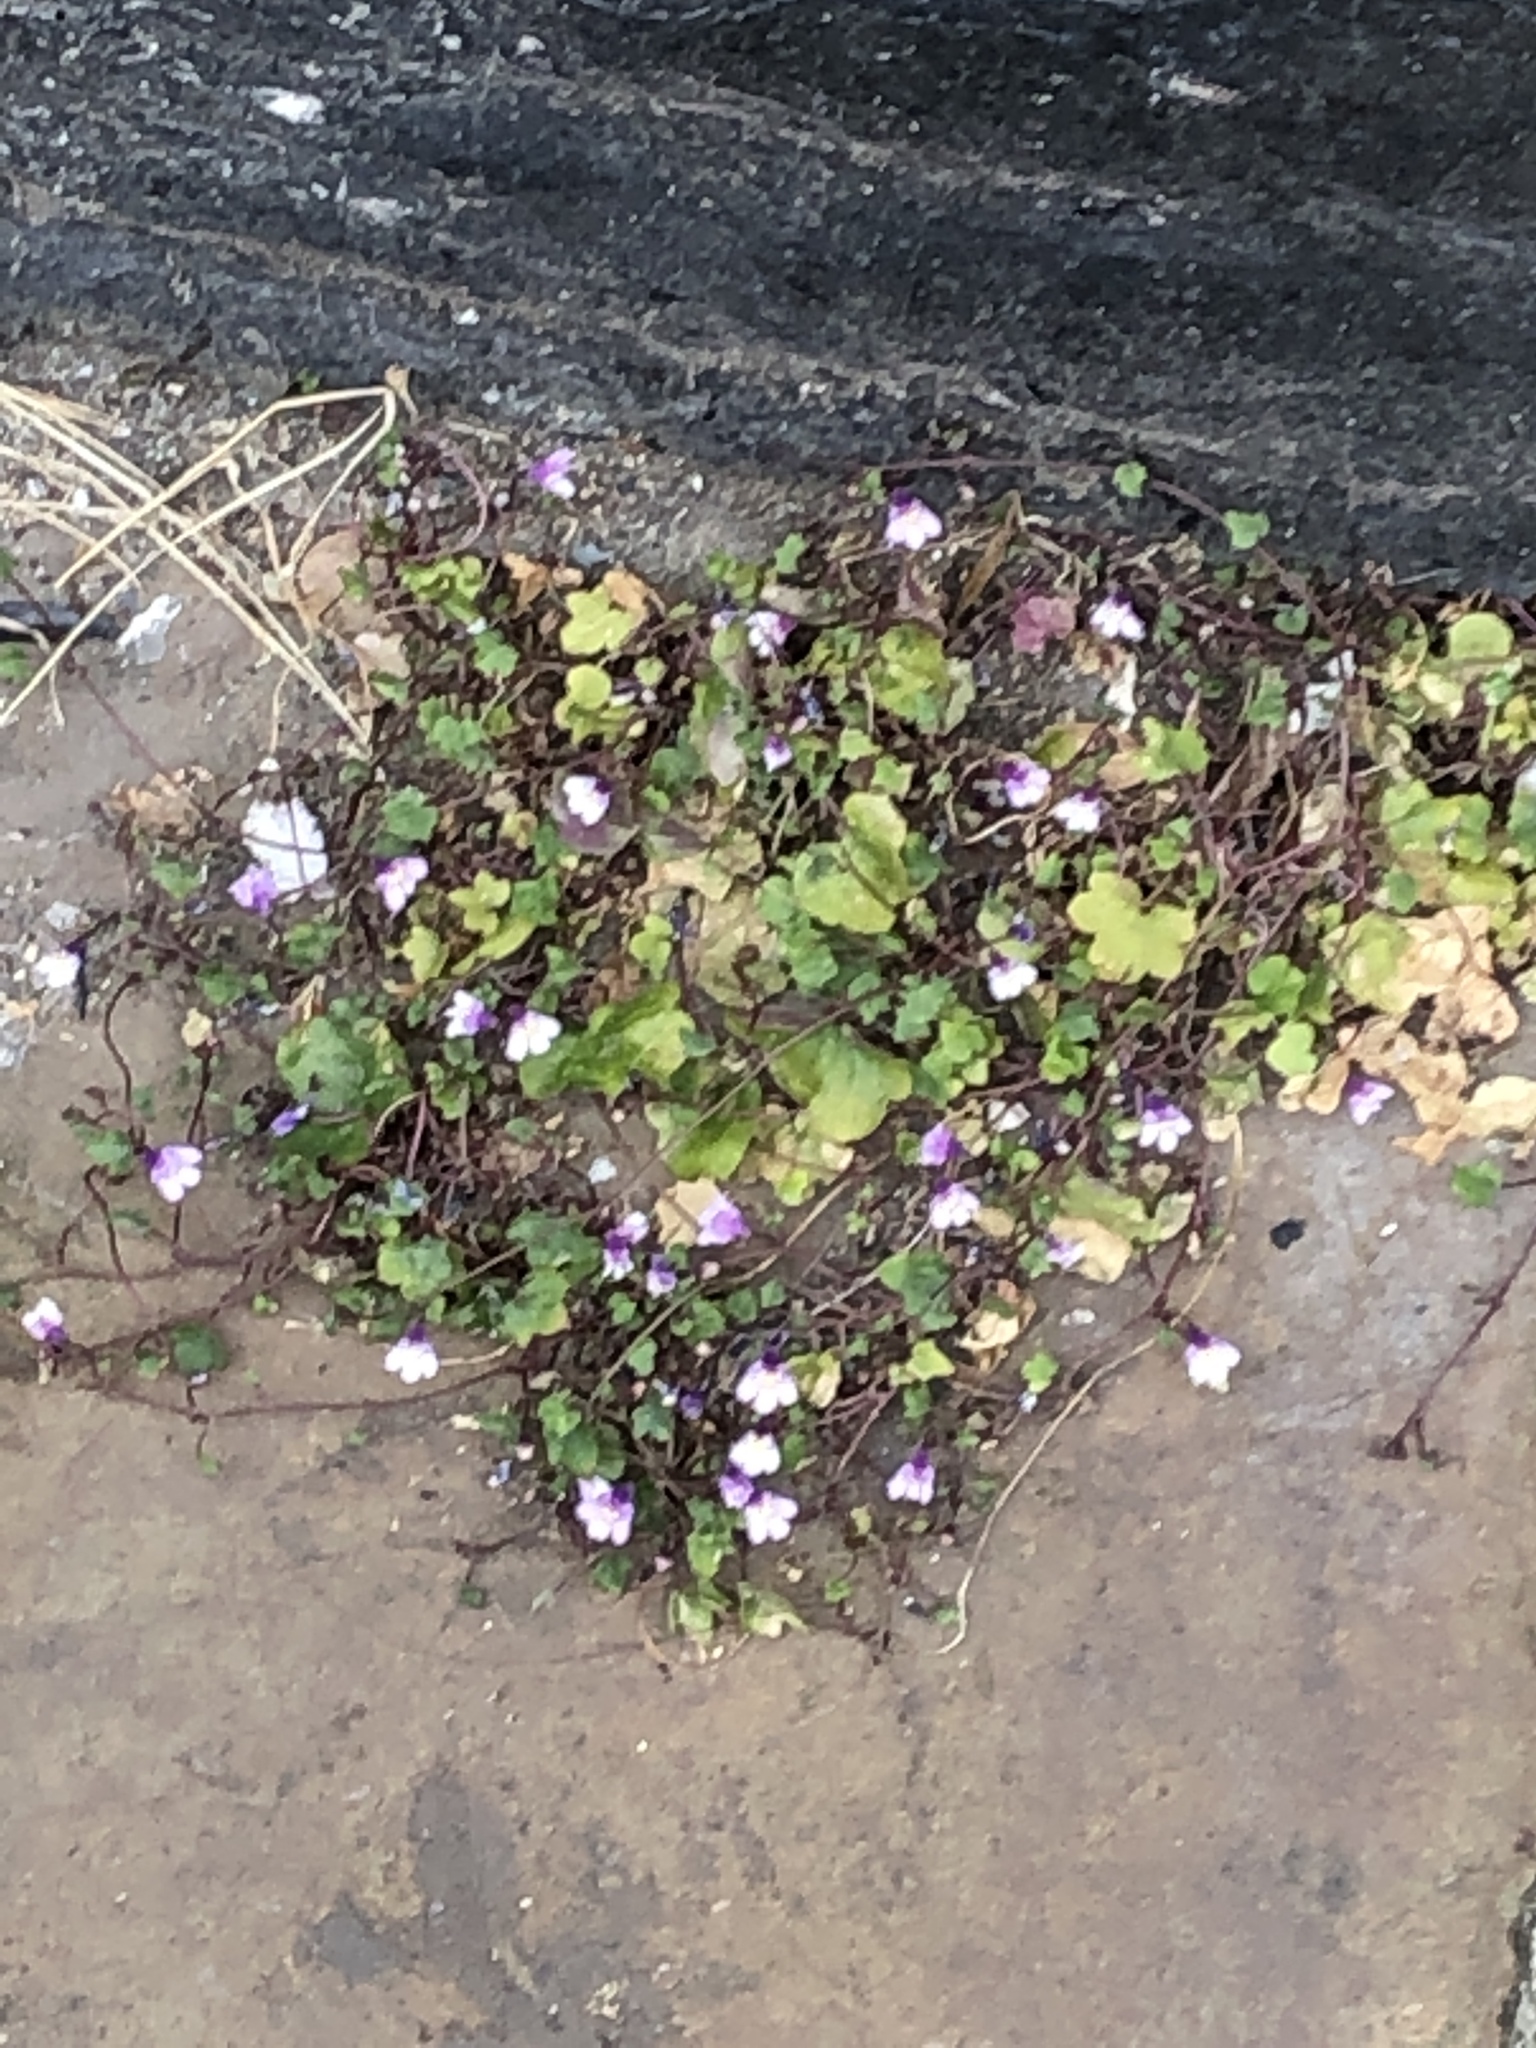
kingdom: Plantae
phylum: Tracheophyta
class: Magnoliopsida
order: Lamiales
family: Plantaginaceae
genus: Cymbalaria
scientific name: Cymbalaria muralis
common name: Ivy-leaved toadflax
